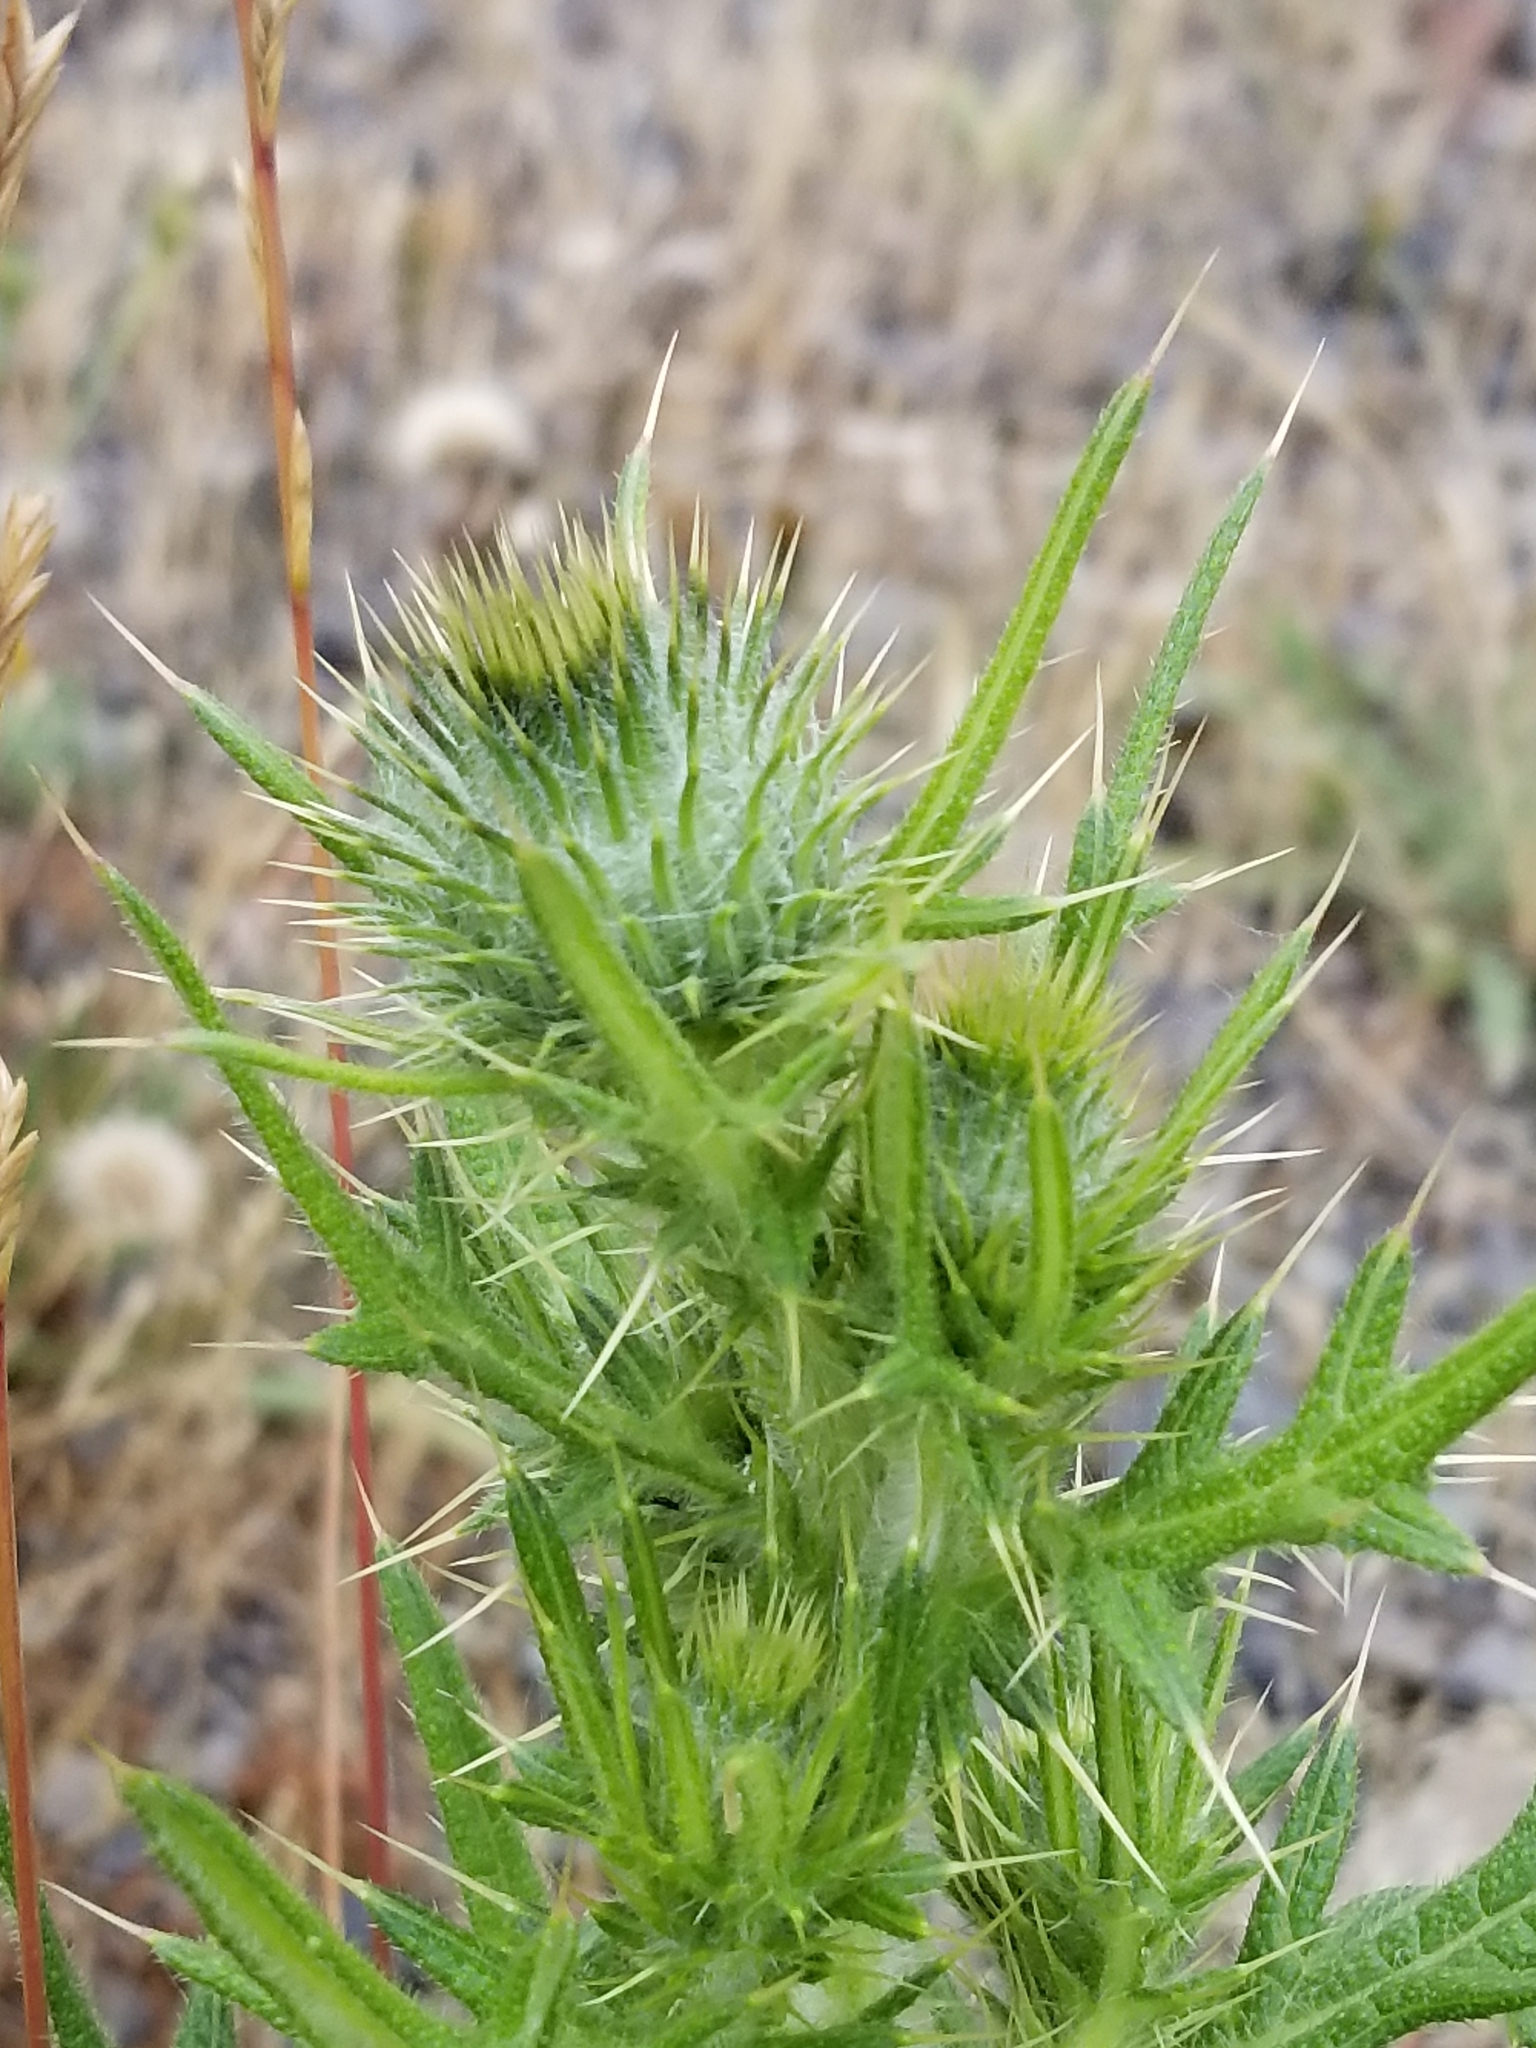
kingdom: Plantae
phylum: Tracheophyta
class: Magnoliopsida
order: Asterales
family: Asteraceae
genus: Cirsium
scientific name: Cirsium vulgare
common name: Bull thistle
